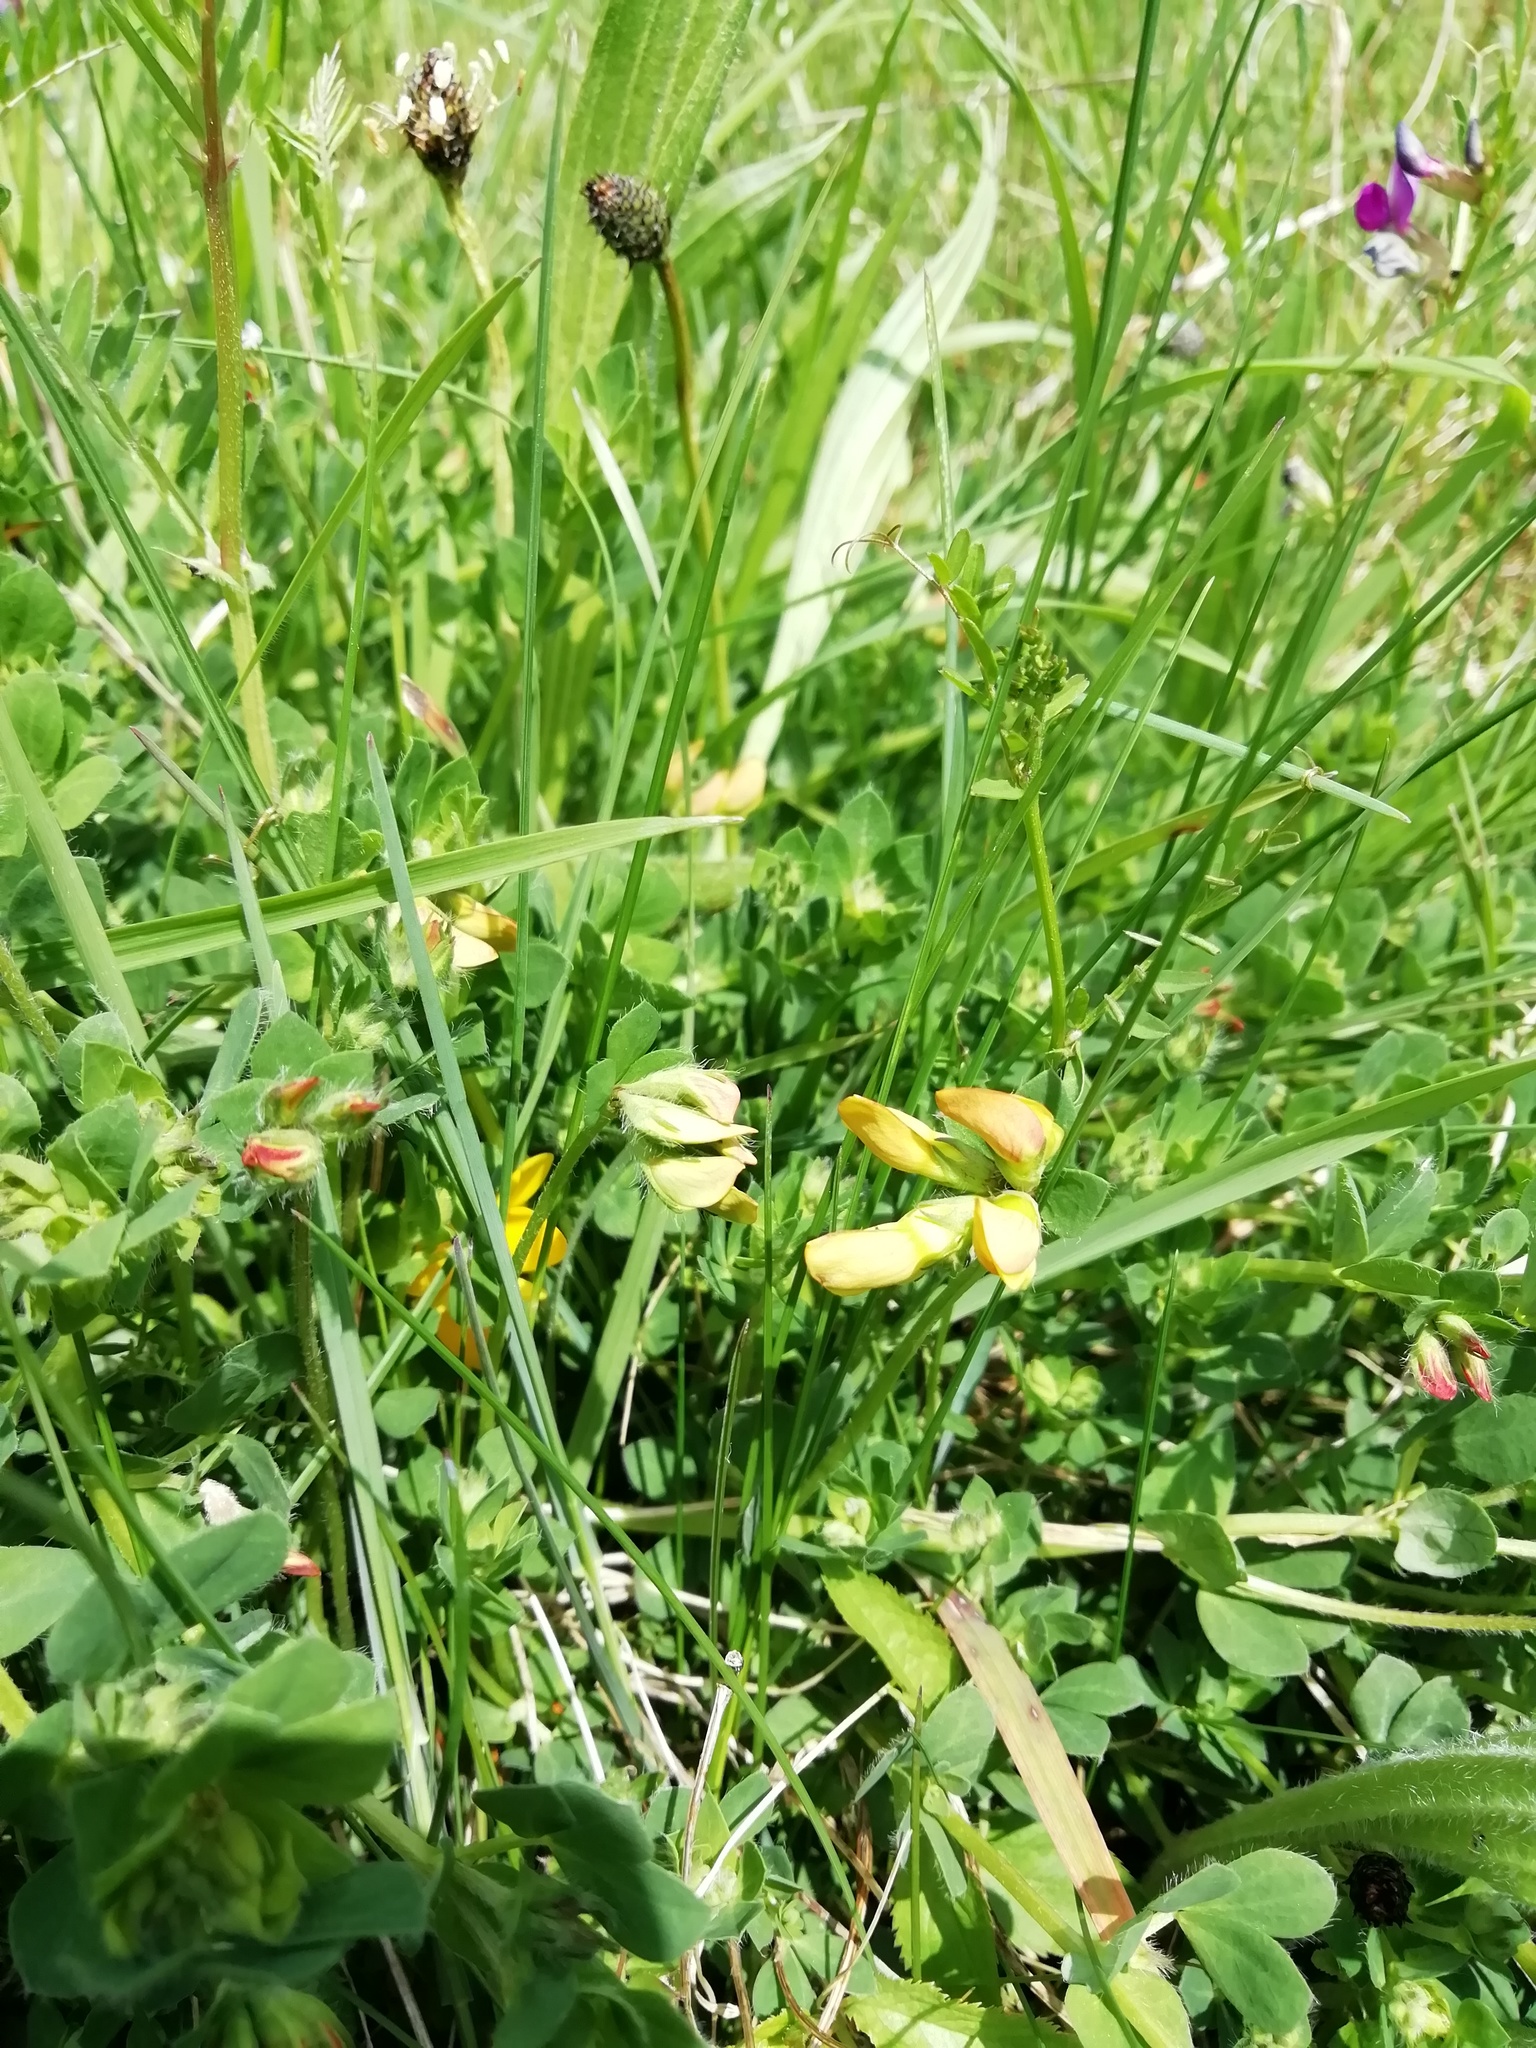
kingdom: Plantae
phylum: Tracheophyta
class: Magnoliopsida
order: Fabales
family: Fabaceae
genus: Lotus
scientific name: Lotus corniculatus
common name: Common bird's-foot-trefoil
